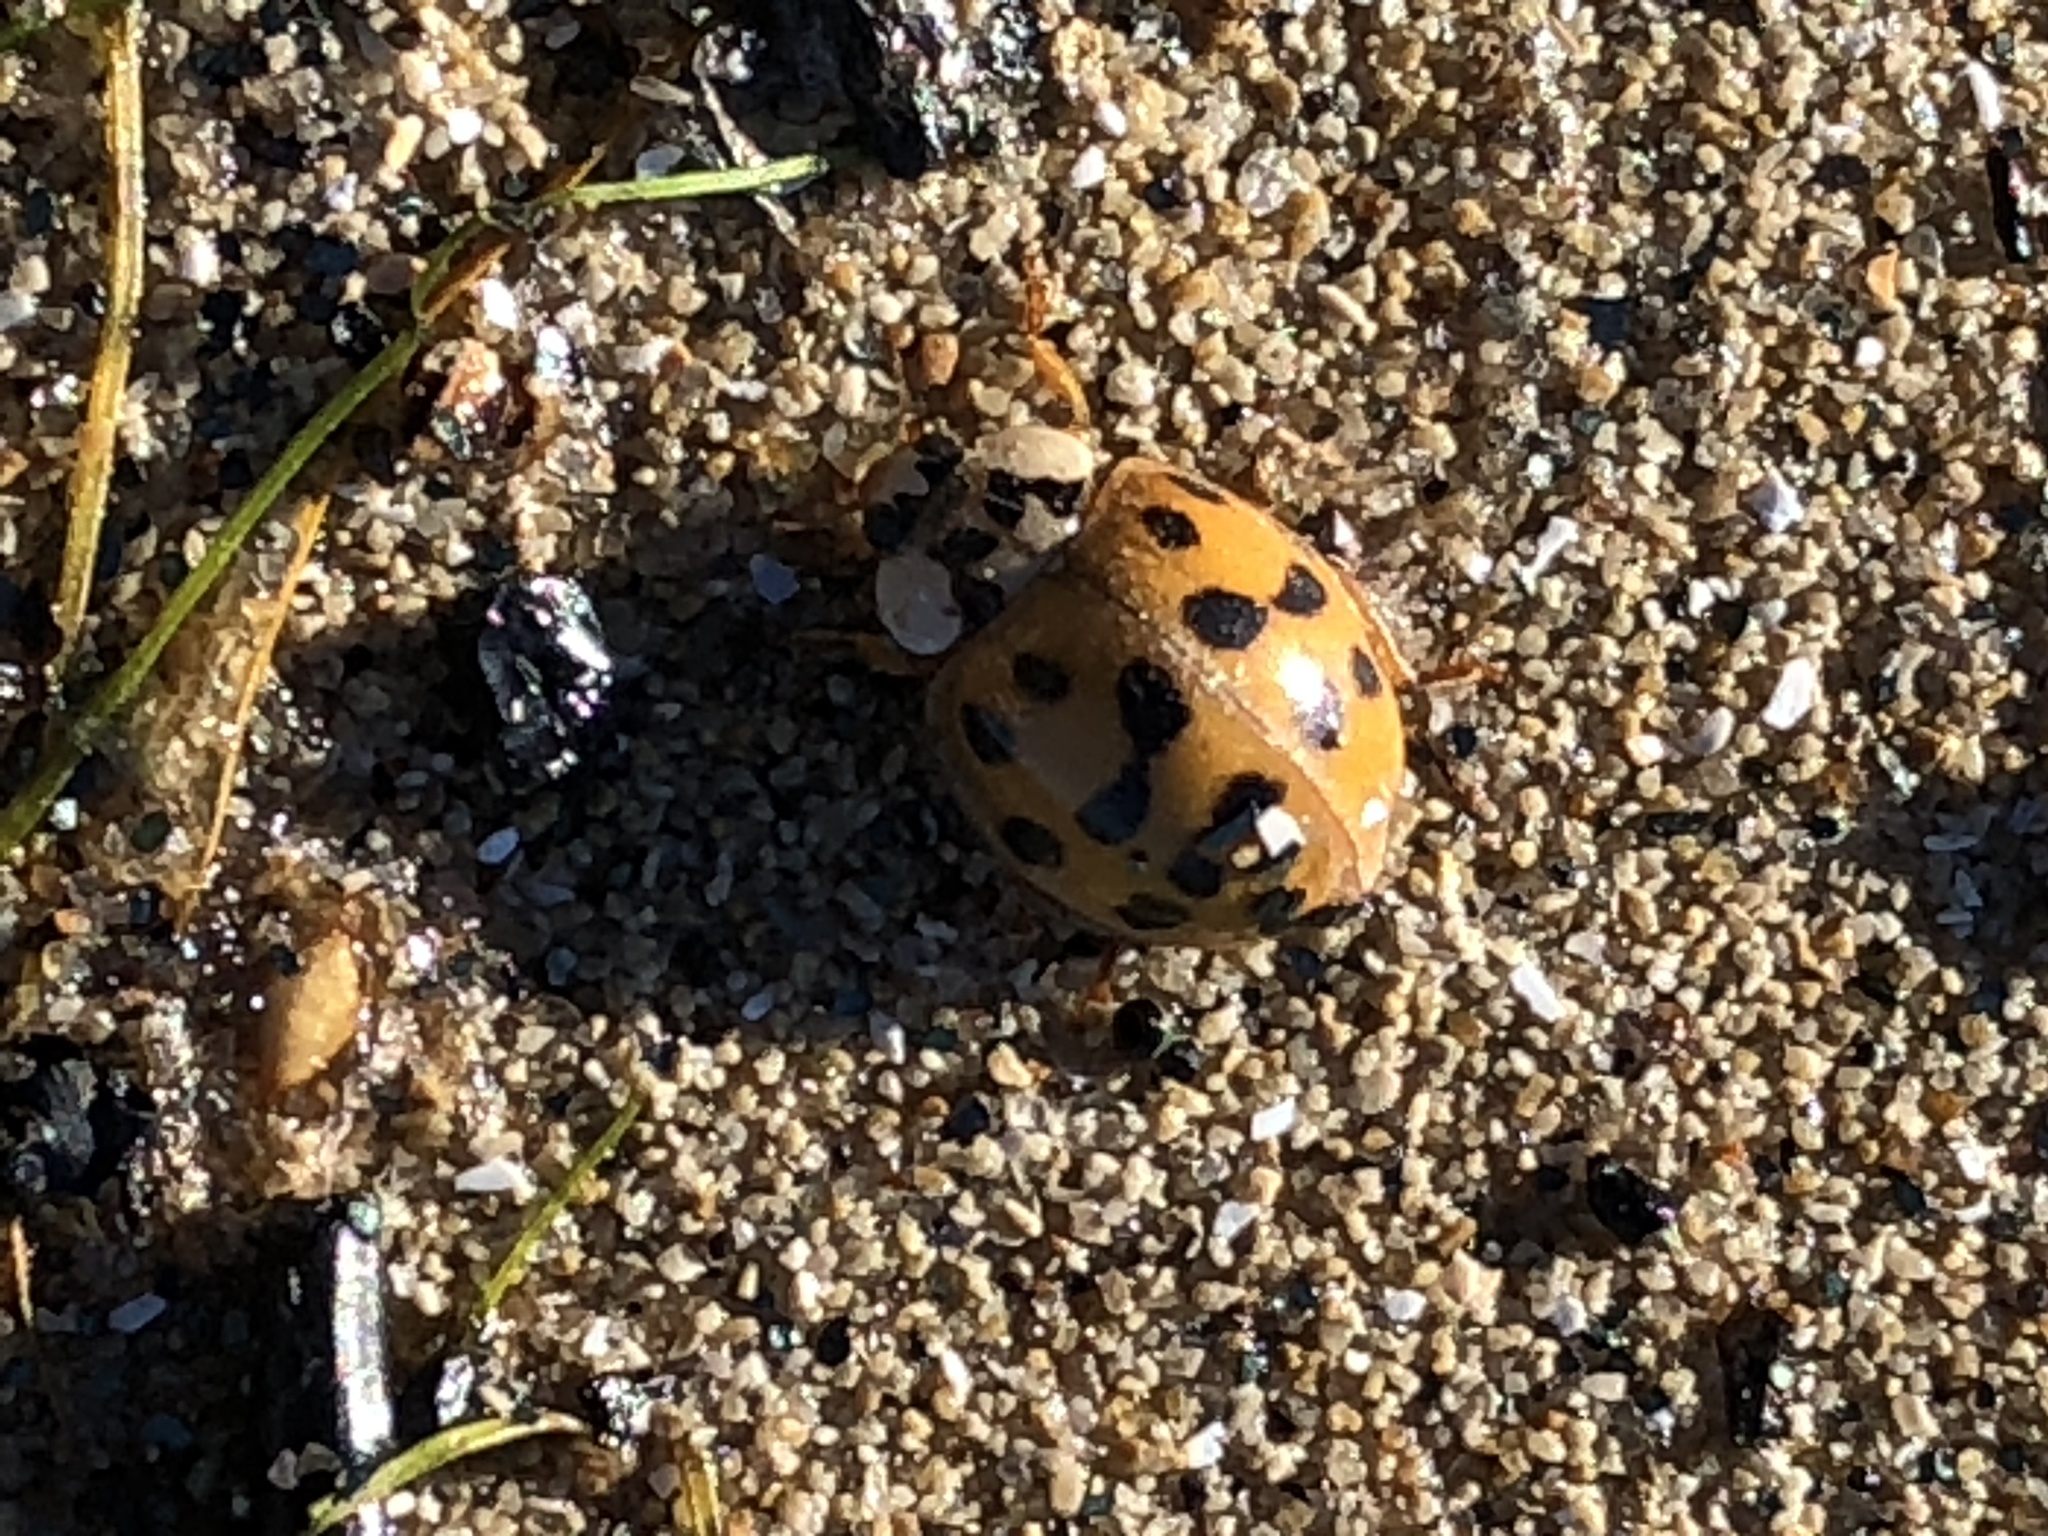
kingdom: Animalia
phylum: Arthropoda
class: Insecta
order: Coleoptera
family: Coccinellidae
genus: Harmonia
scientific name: Harmonia axyridis
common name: Harlequin ladybird
